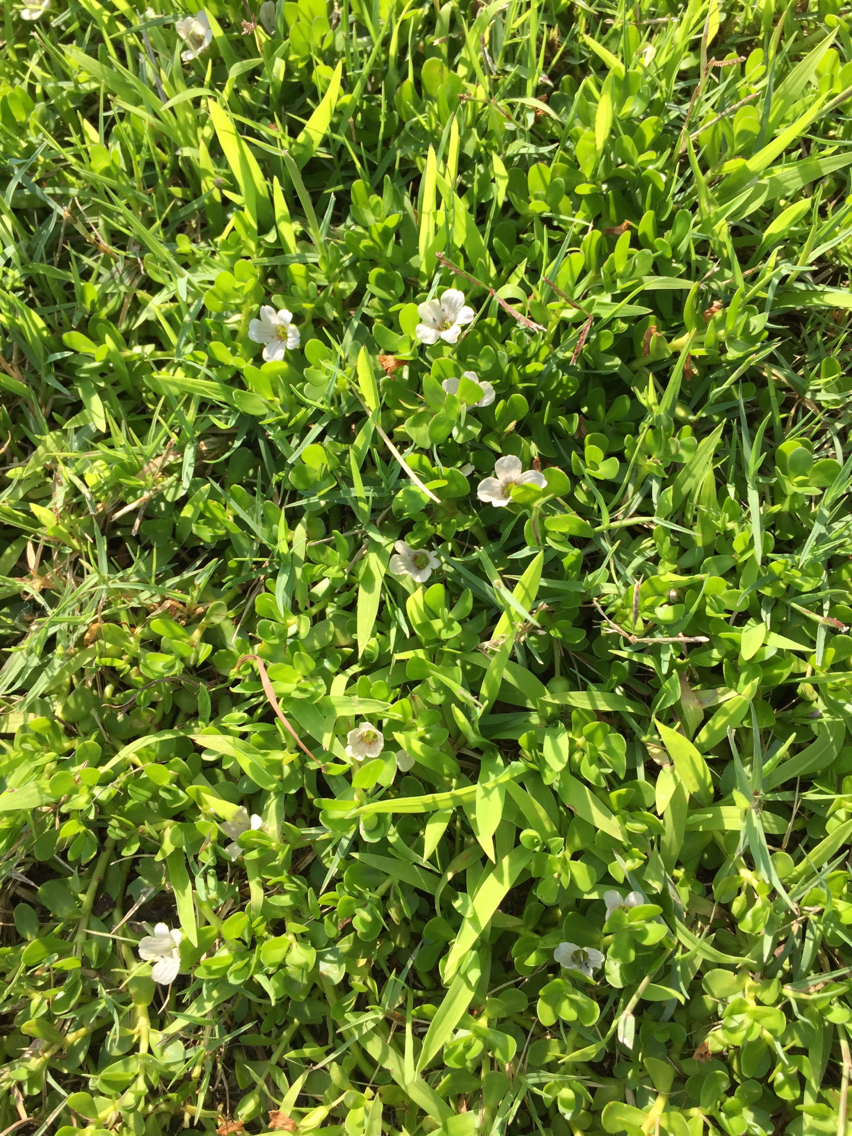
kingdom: Plantae
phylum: Tracheophyta
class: Magnoliopsida
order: Lamiales
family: Plantaginaceae
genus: Bacopa
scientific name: Bacopa monnieri
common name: Indian-pennywort
